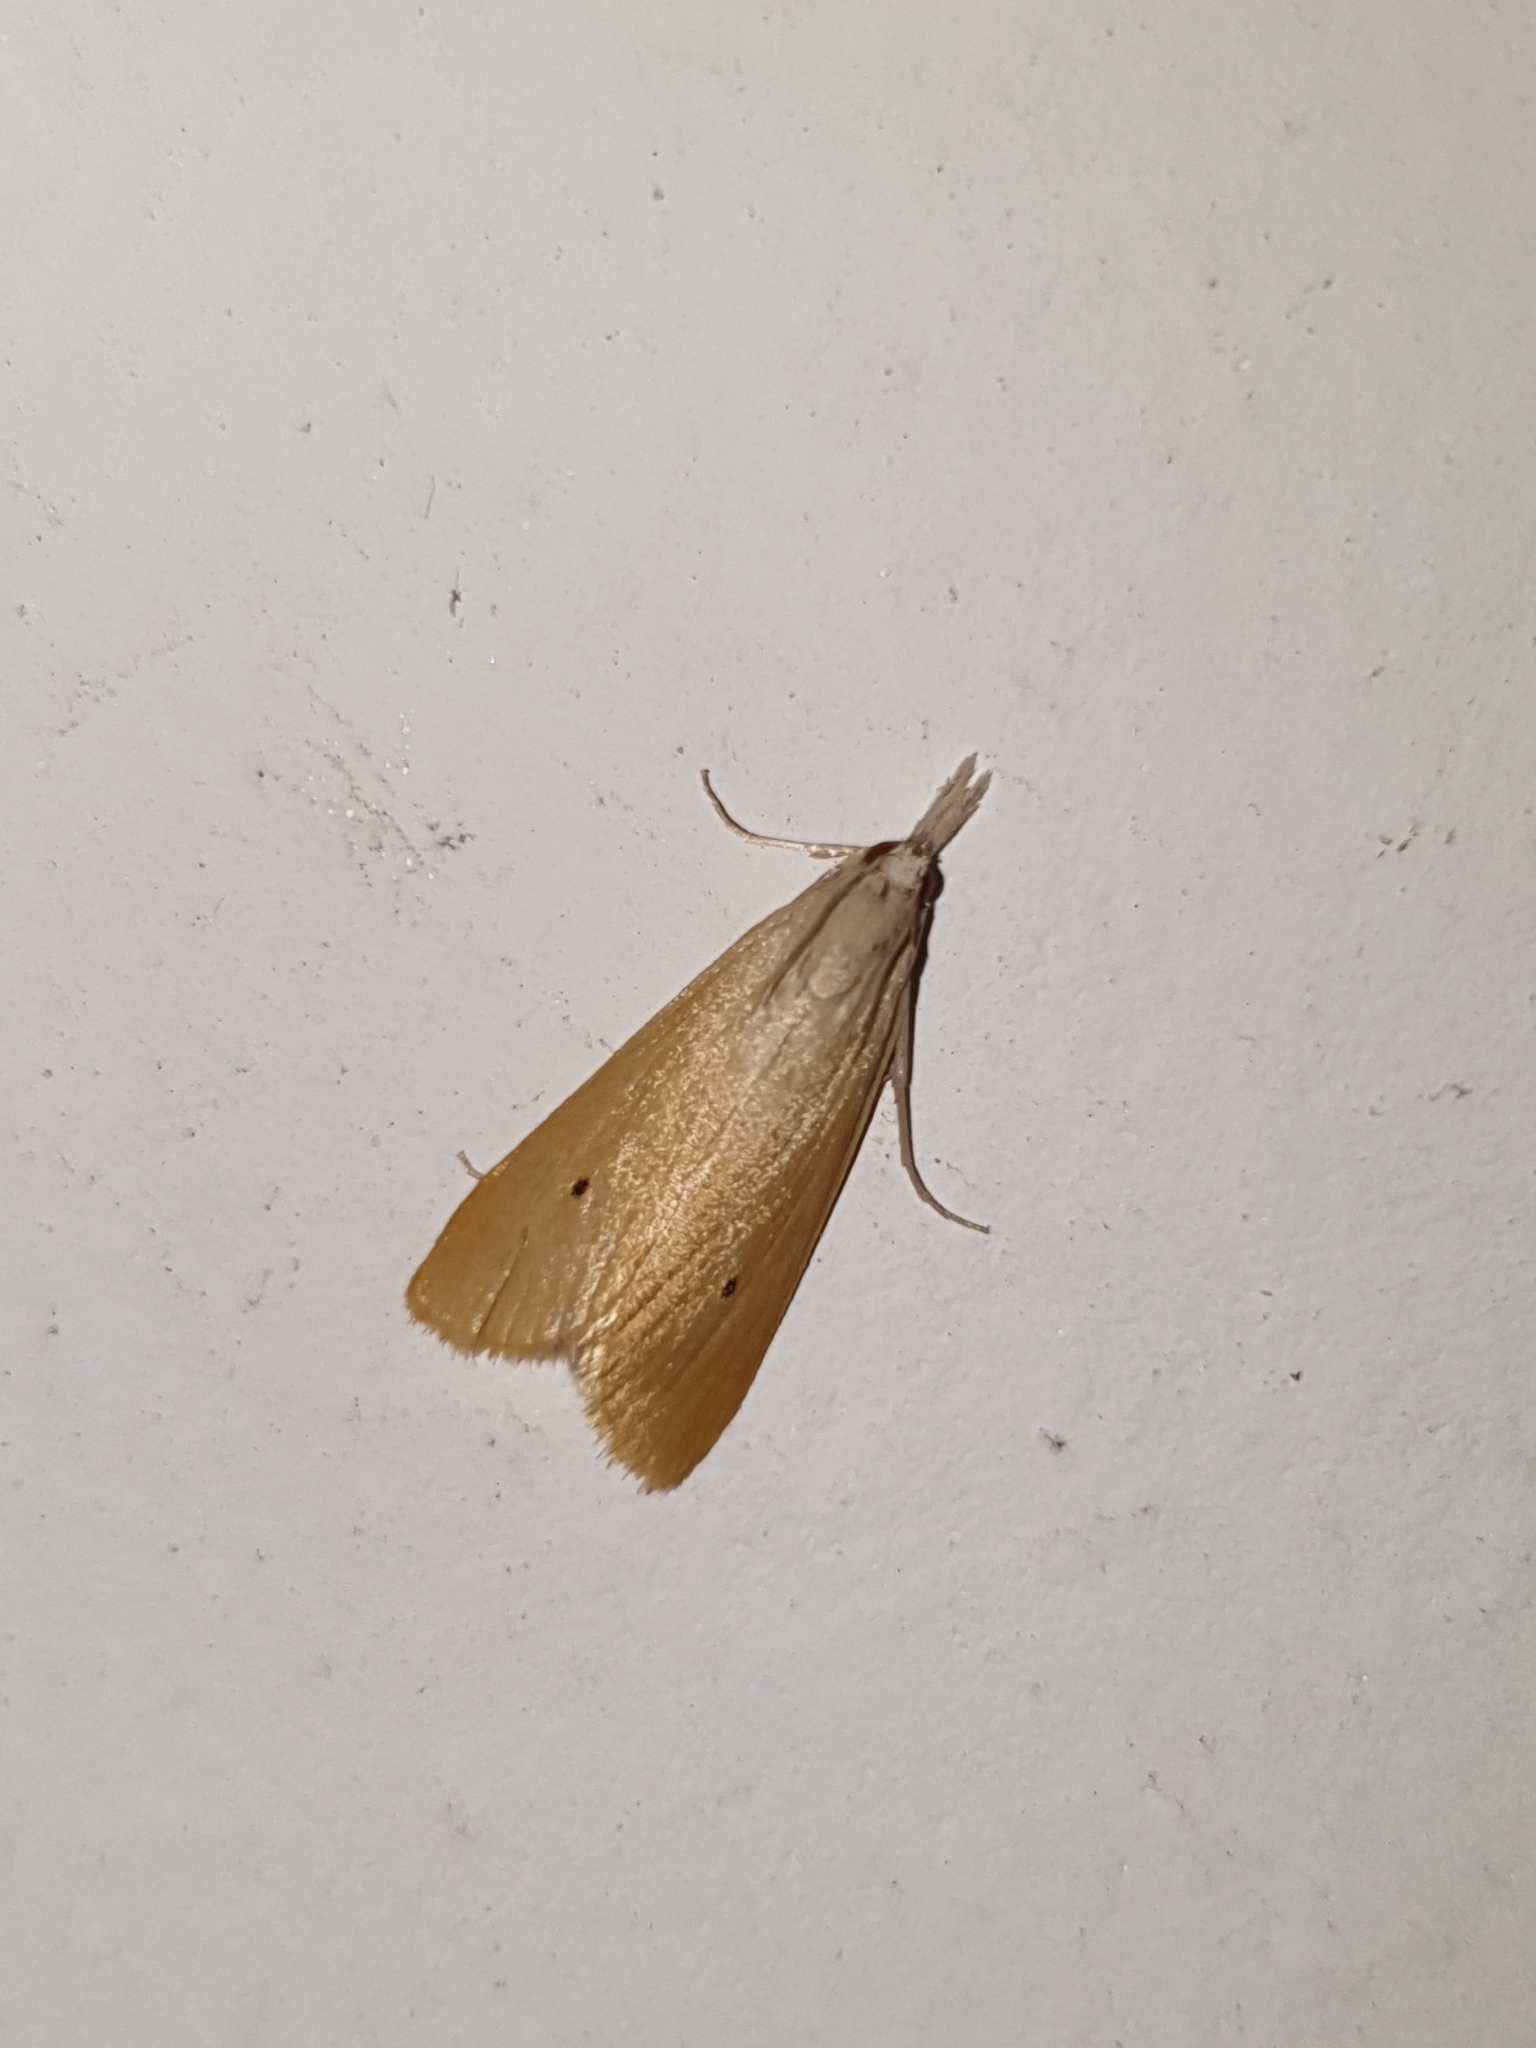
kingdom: Animalia
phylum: Arthropoda
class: Insecta
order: Lepidoptera
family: Crambidae
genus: Scirpophaga
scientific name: Scirpophaga incertulas
